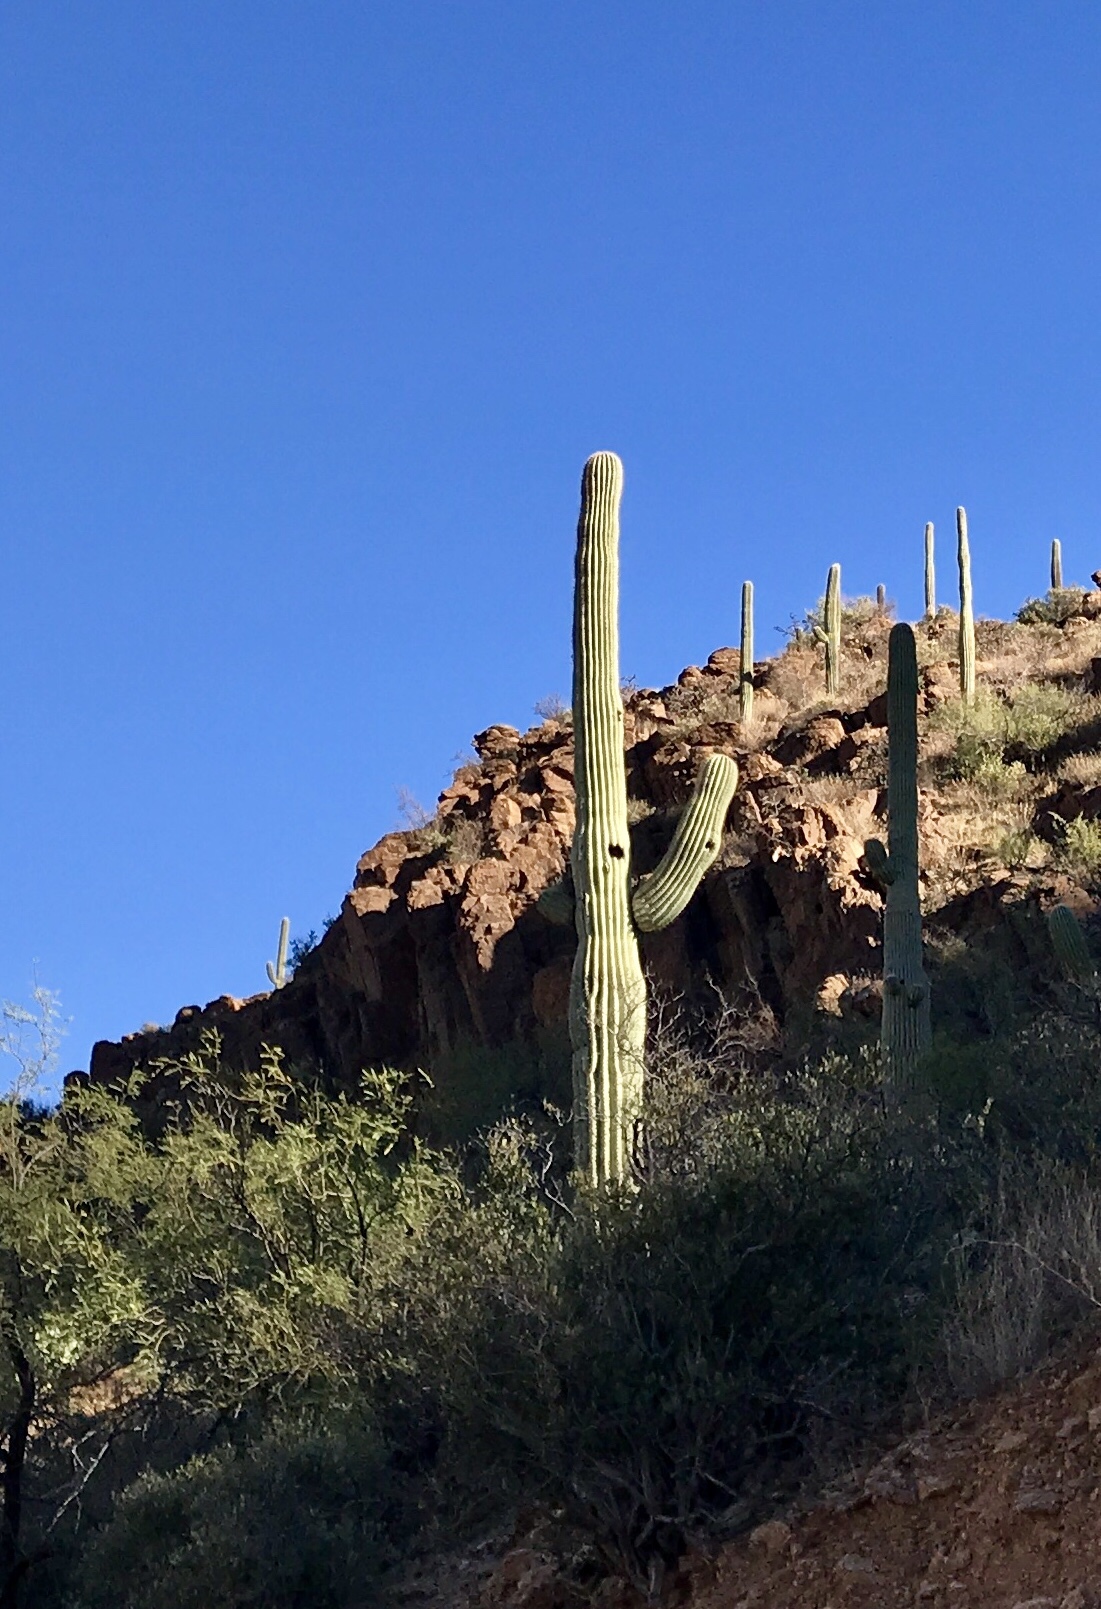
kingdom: Plantae
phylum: Tracheophyta
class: Magnoliopsida
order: Caryophyllales
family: Cactaceae
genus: Carnegiea
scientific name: Carnegiea gigantea
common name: Saguaro
